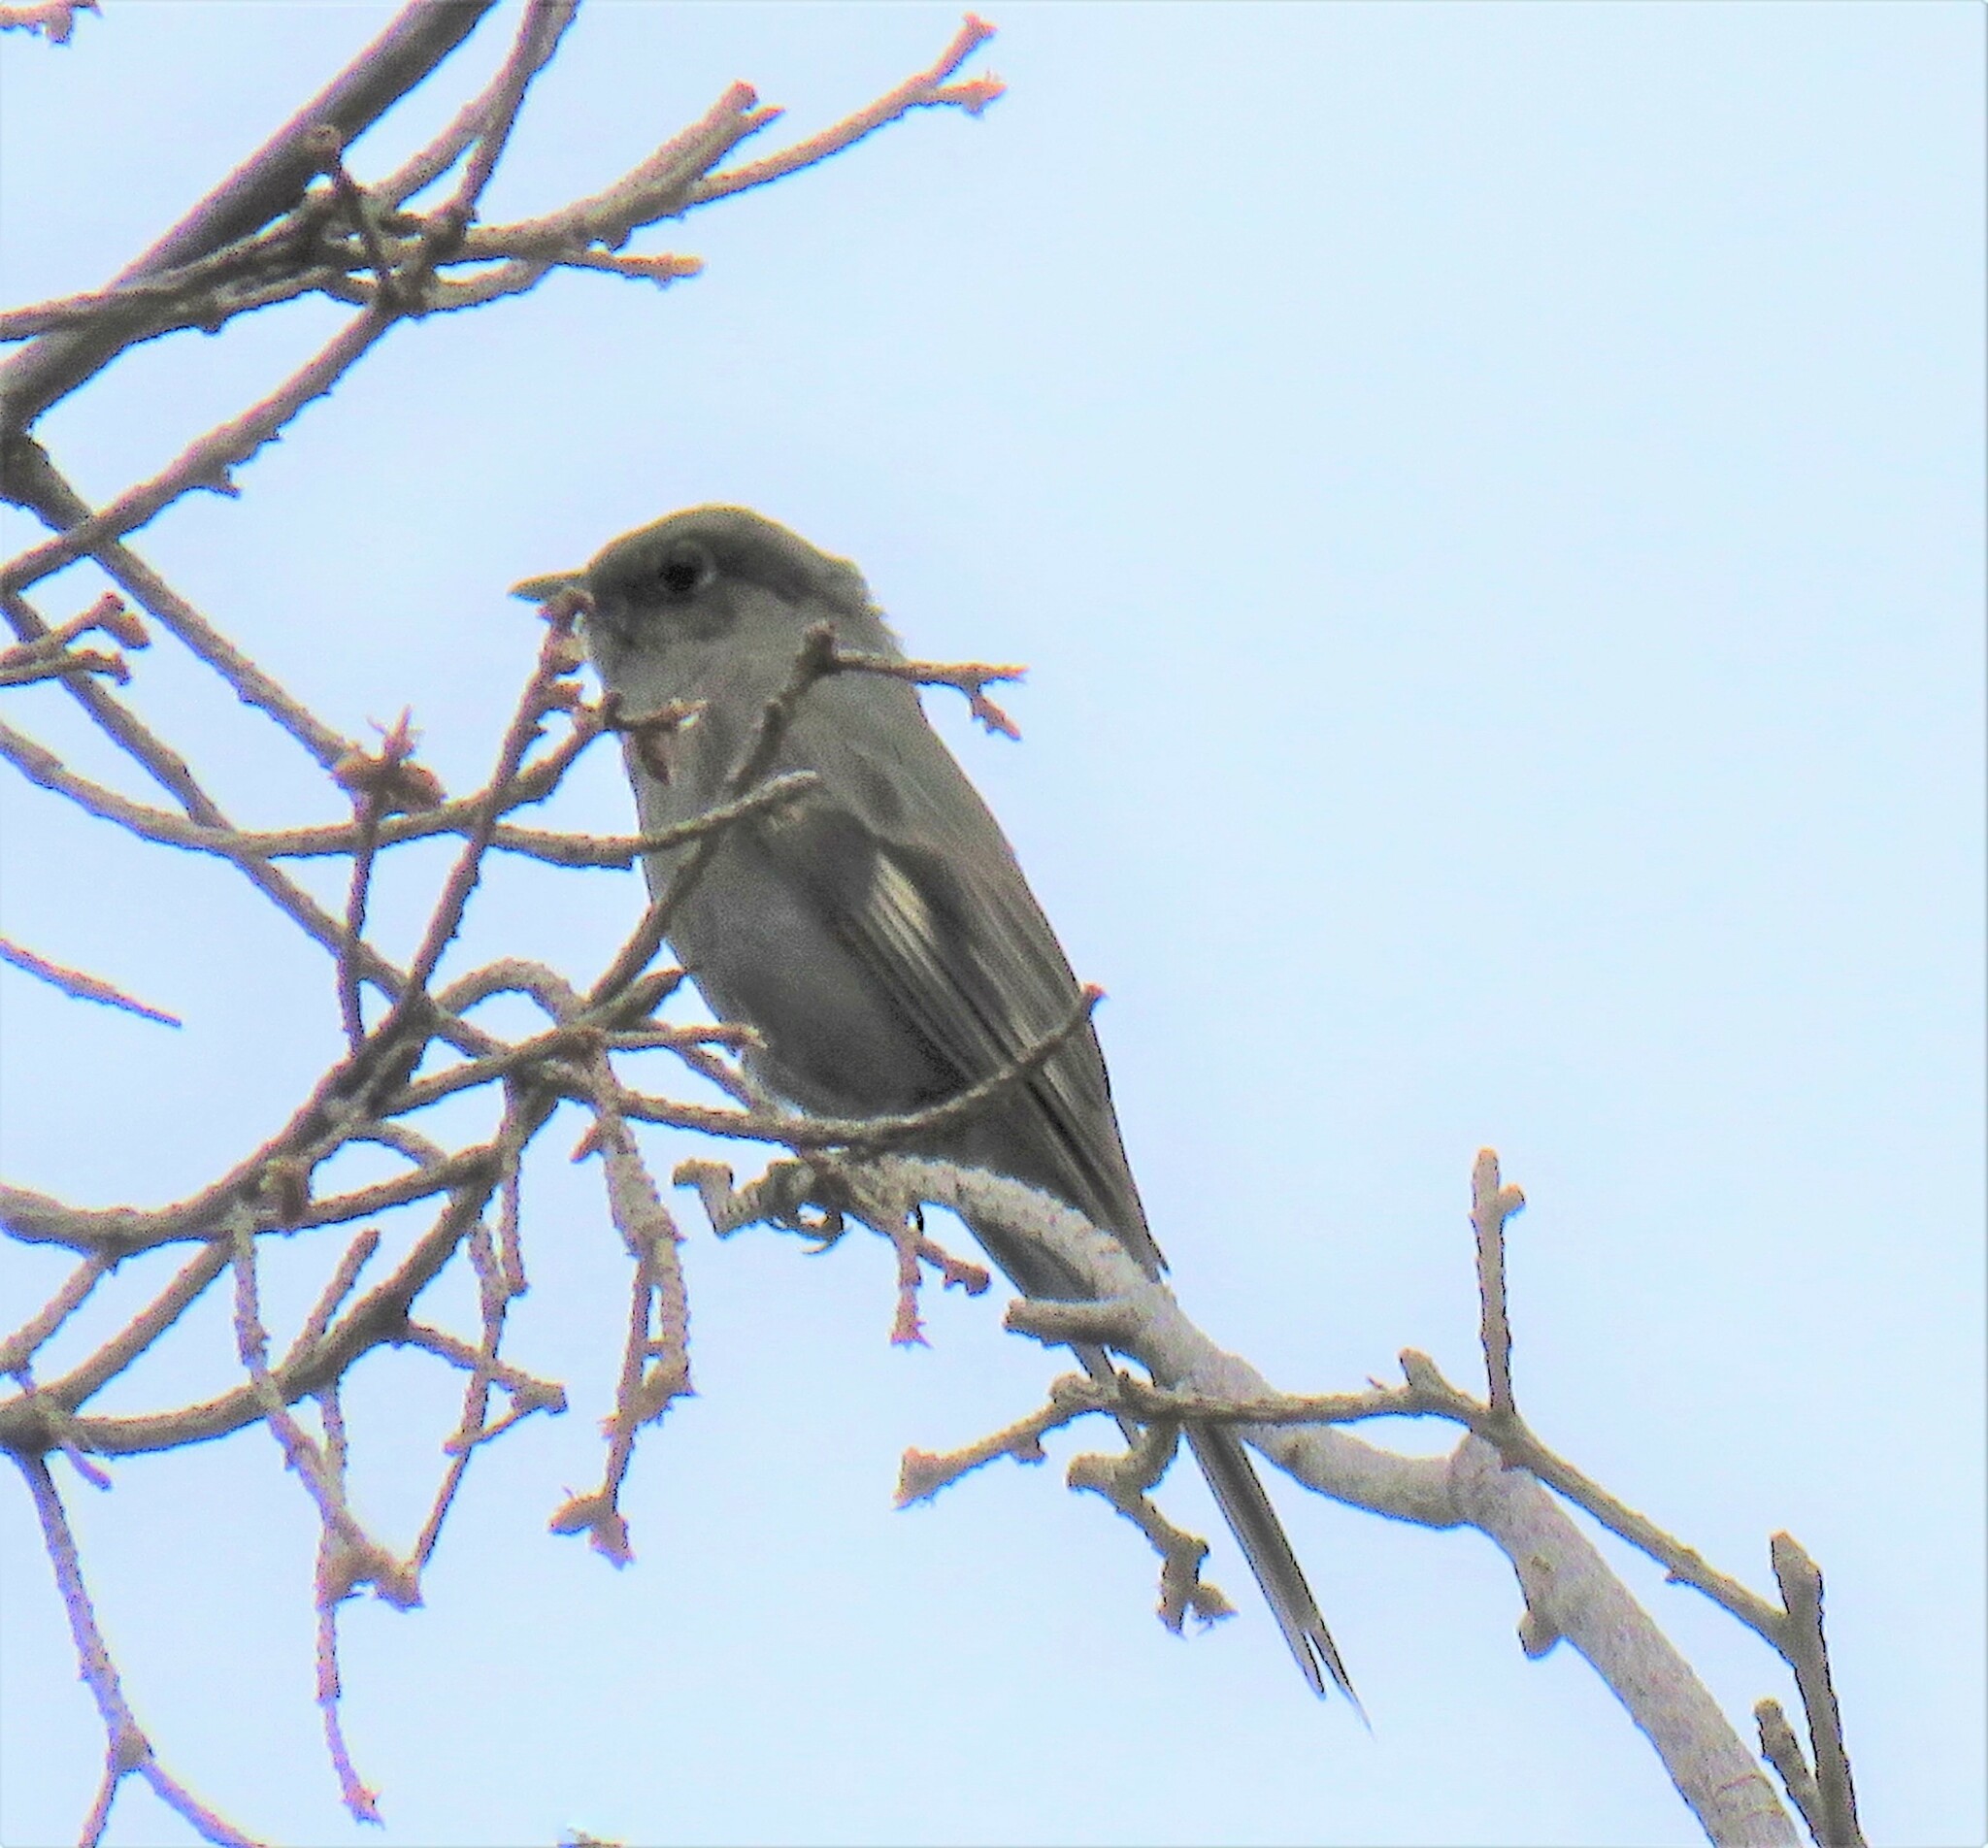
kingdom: Animalia
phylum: Chordata
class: Aves
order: Passeriformes
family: Turdidae
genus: Myadestes
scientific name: Myadestes townsendi
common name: Townsend's solitaire
